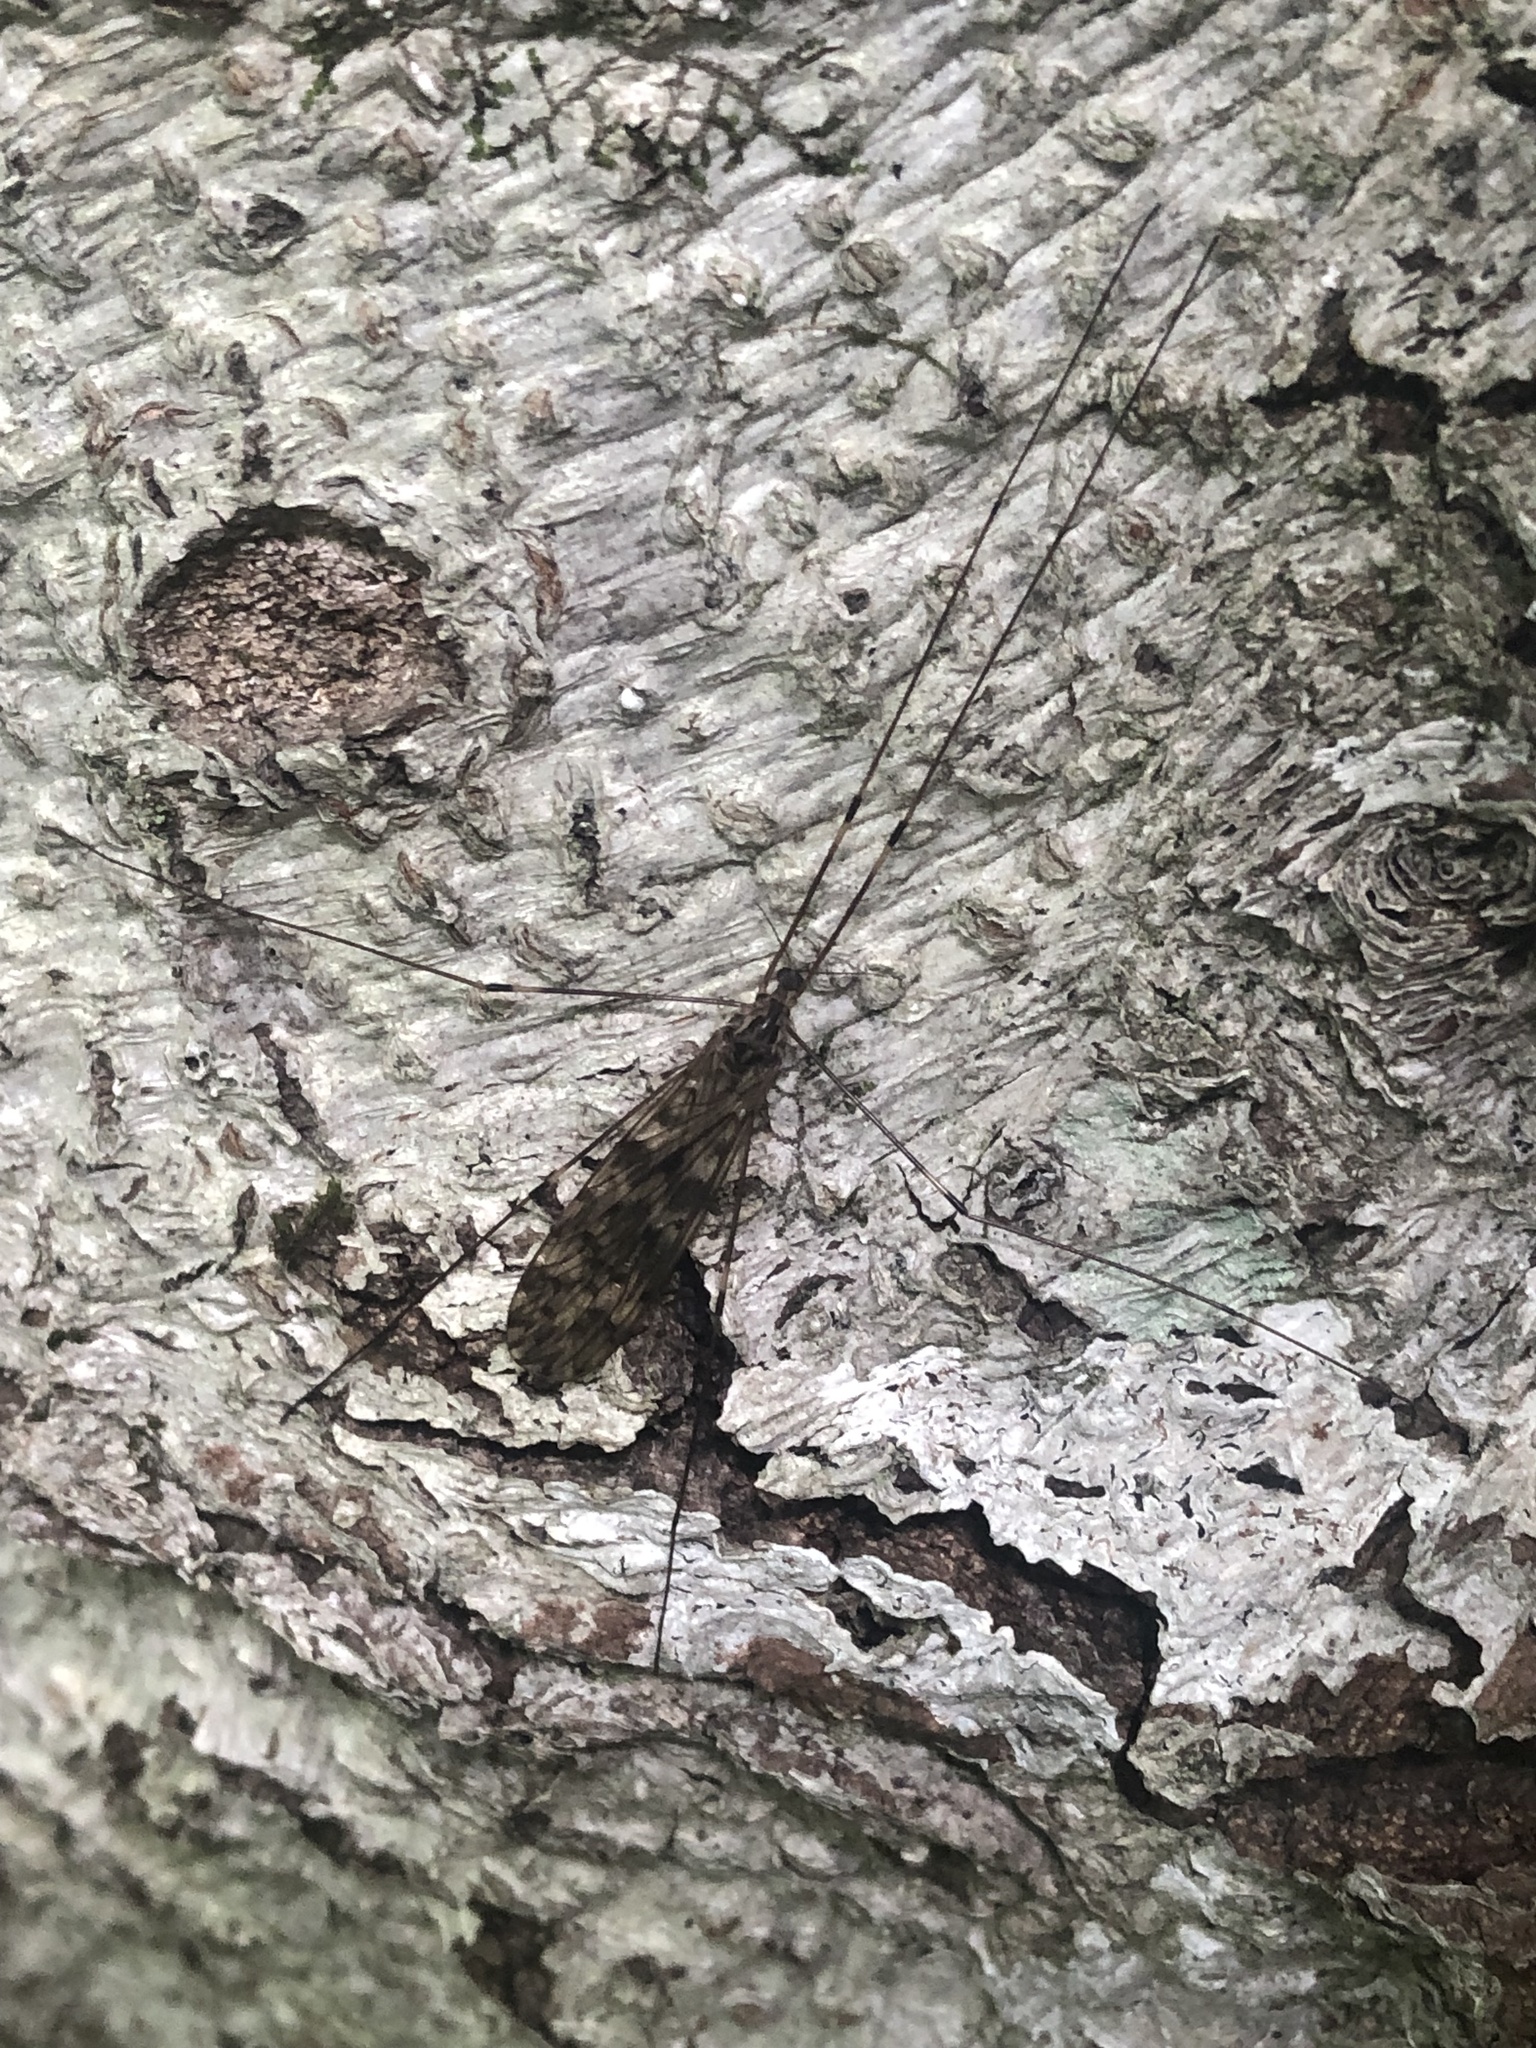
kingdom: Animalia
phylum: Arthropoda
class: Insecta
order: Diptera
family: Limoniidae
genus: Limonia
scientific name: Limonia parietina
